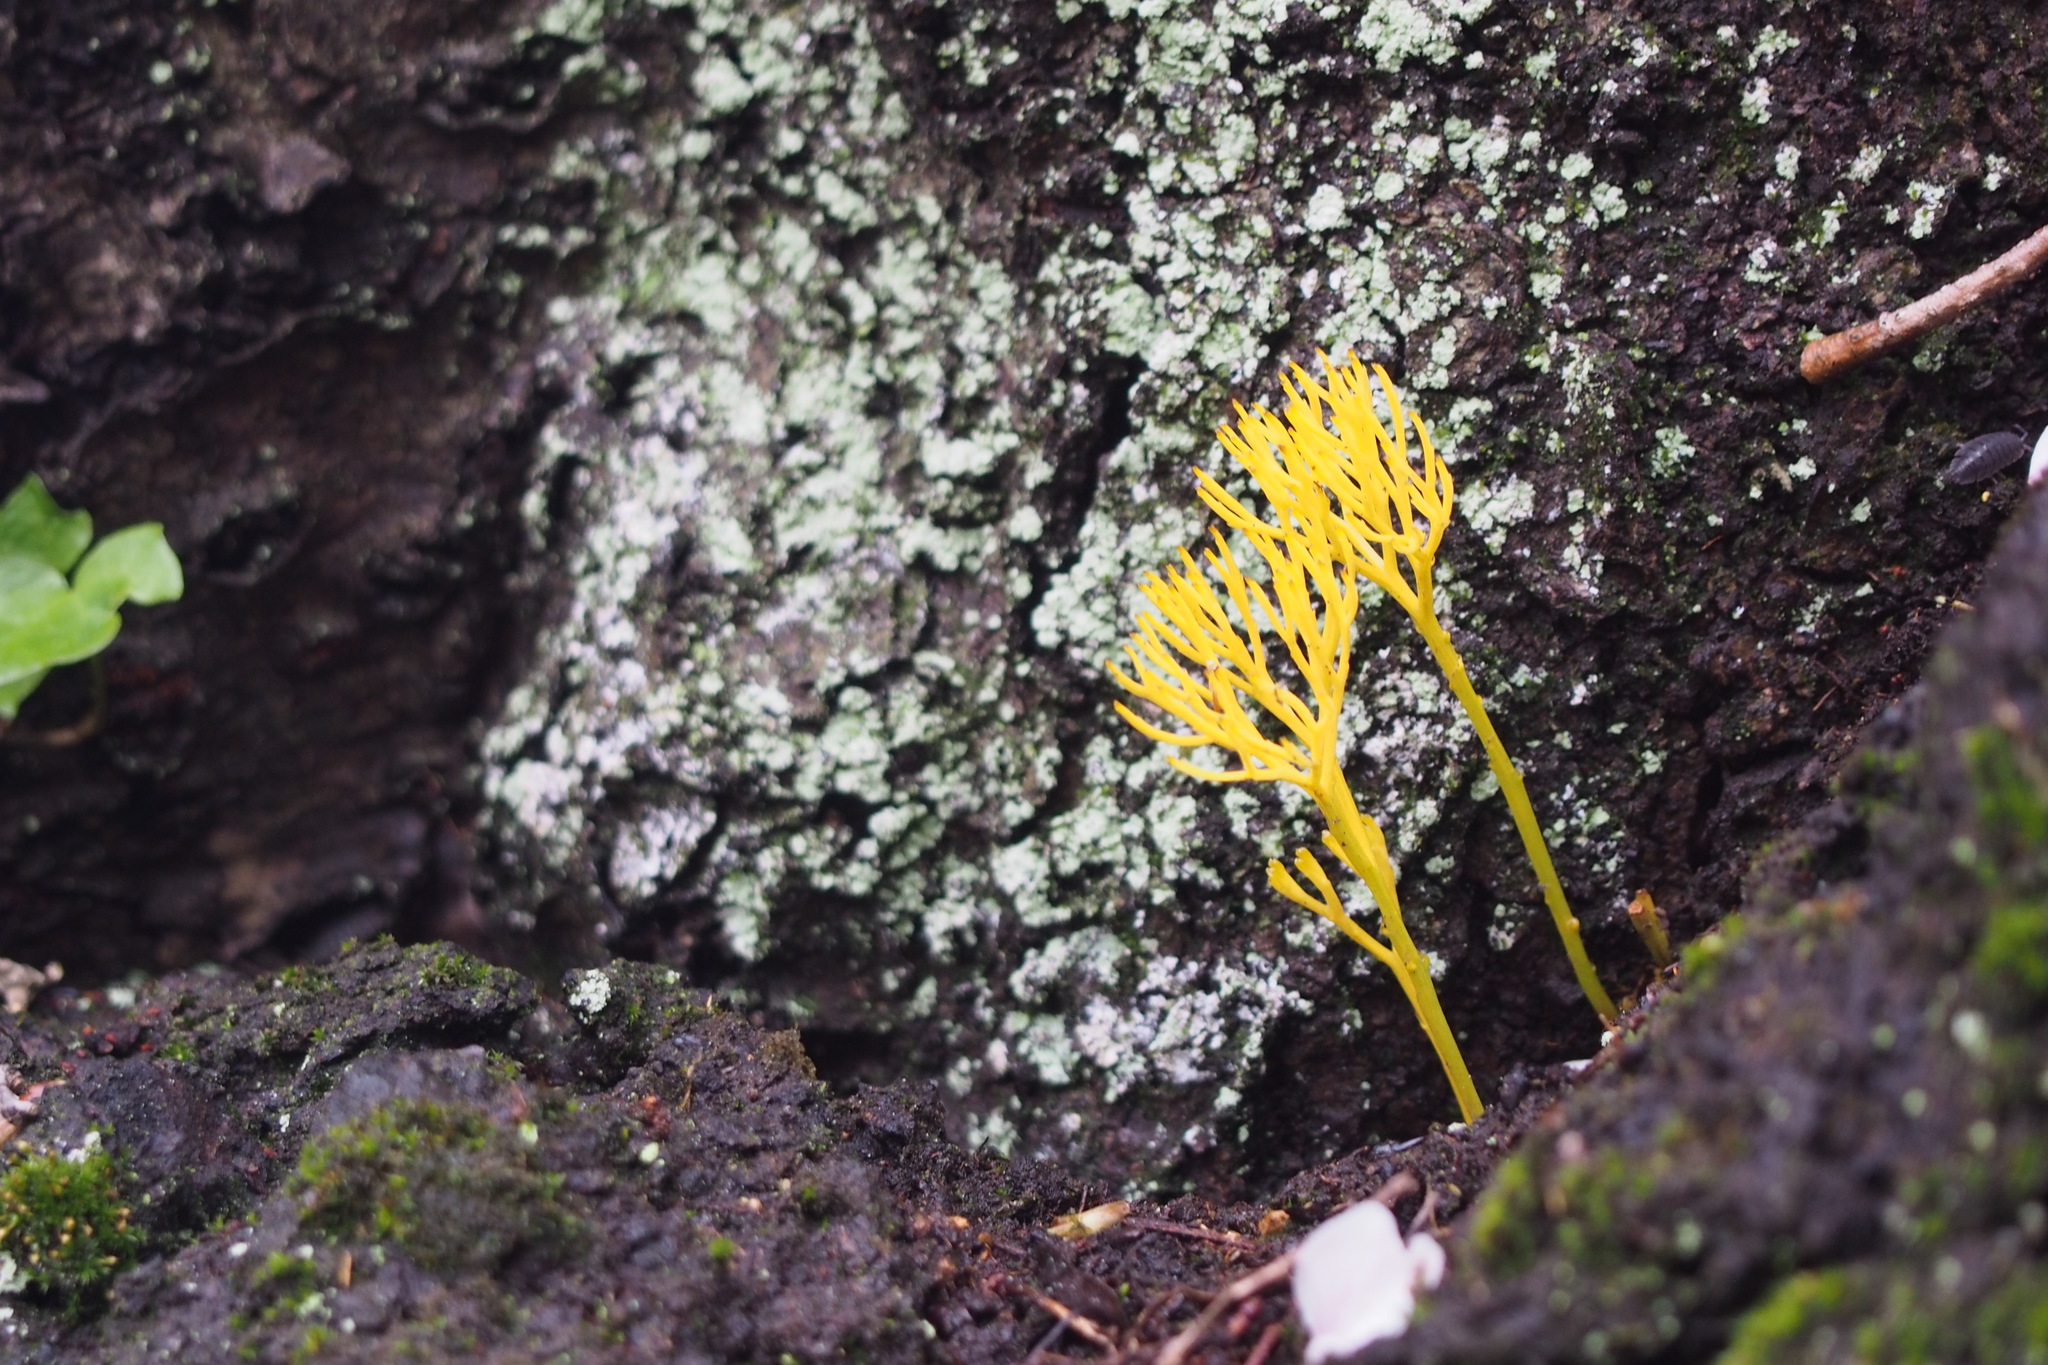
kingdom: Plantae
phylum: Tracheophyta
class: Polypodiopsida
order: Psilotales
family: Psilotaceae
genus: Psilotum
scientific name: Psilotum nudum
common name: Skeleton fork fern
